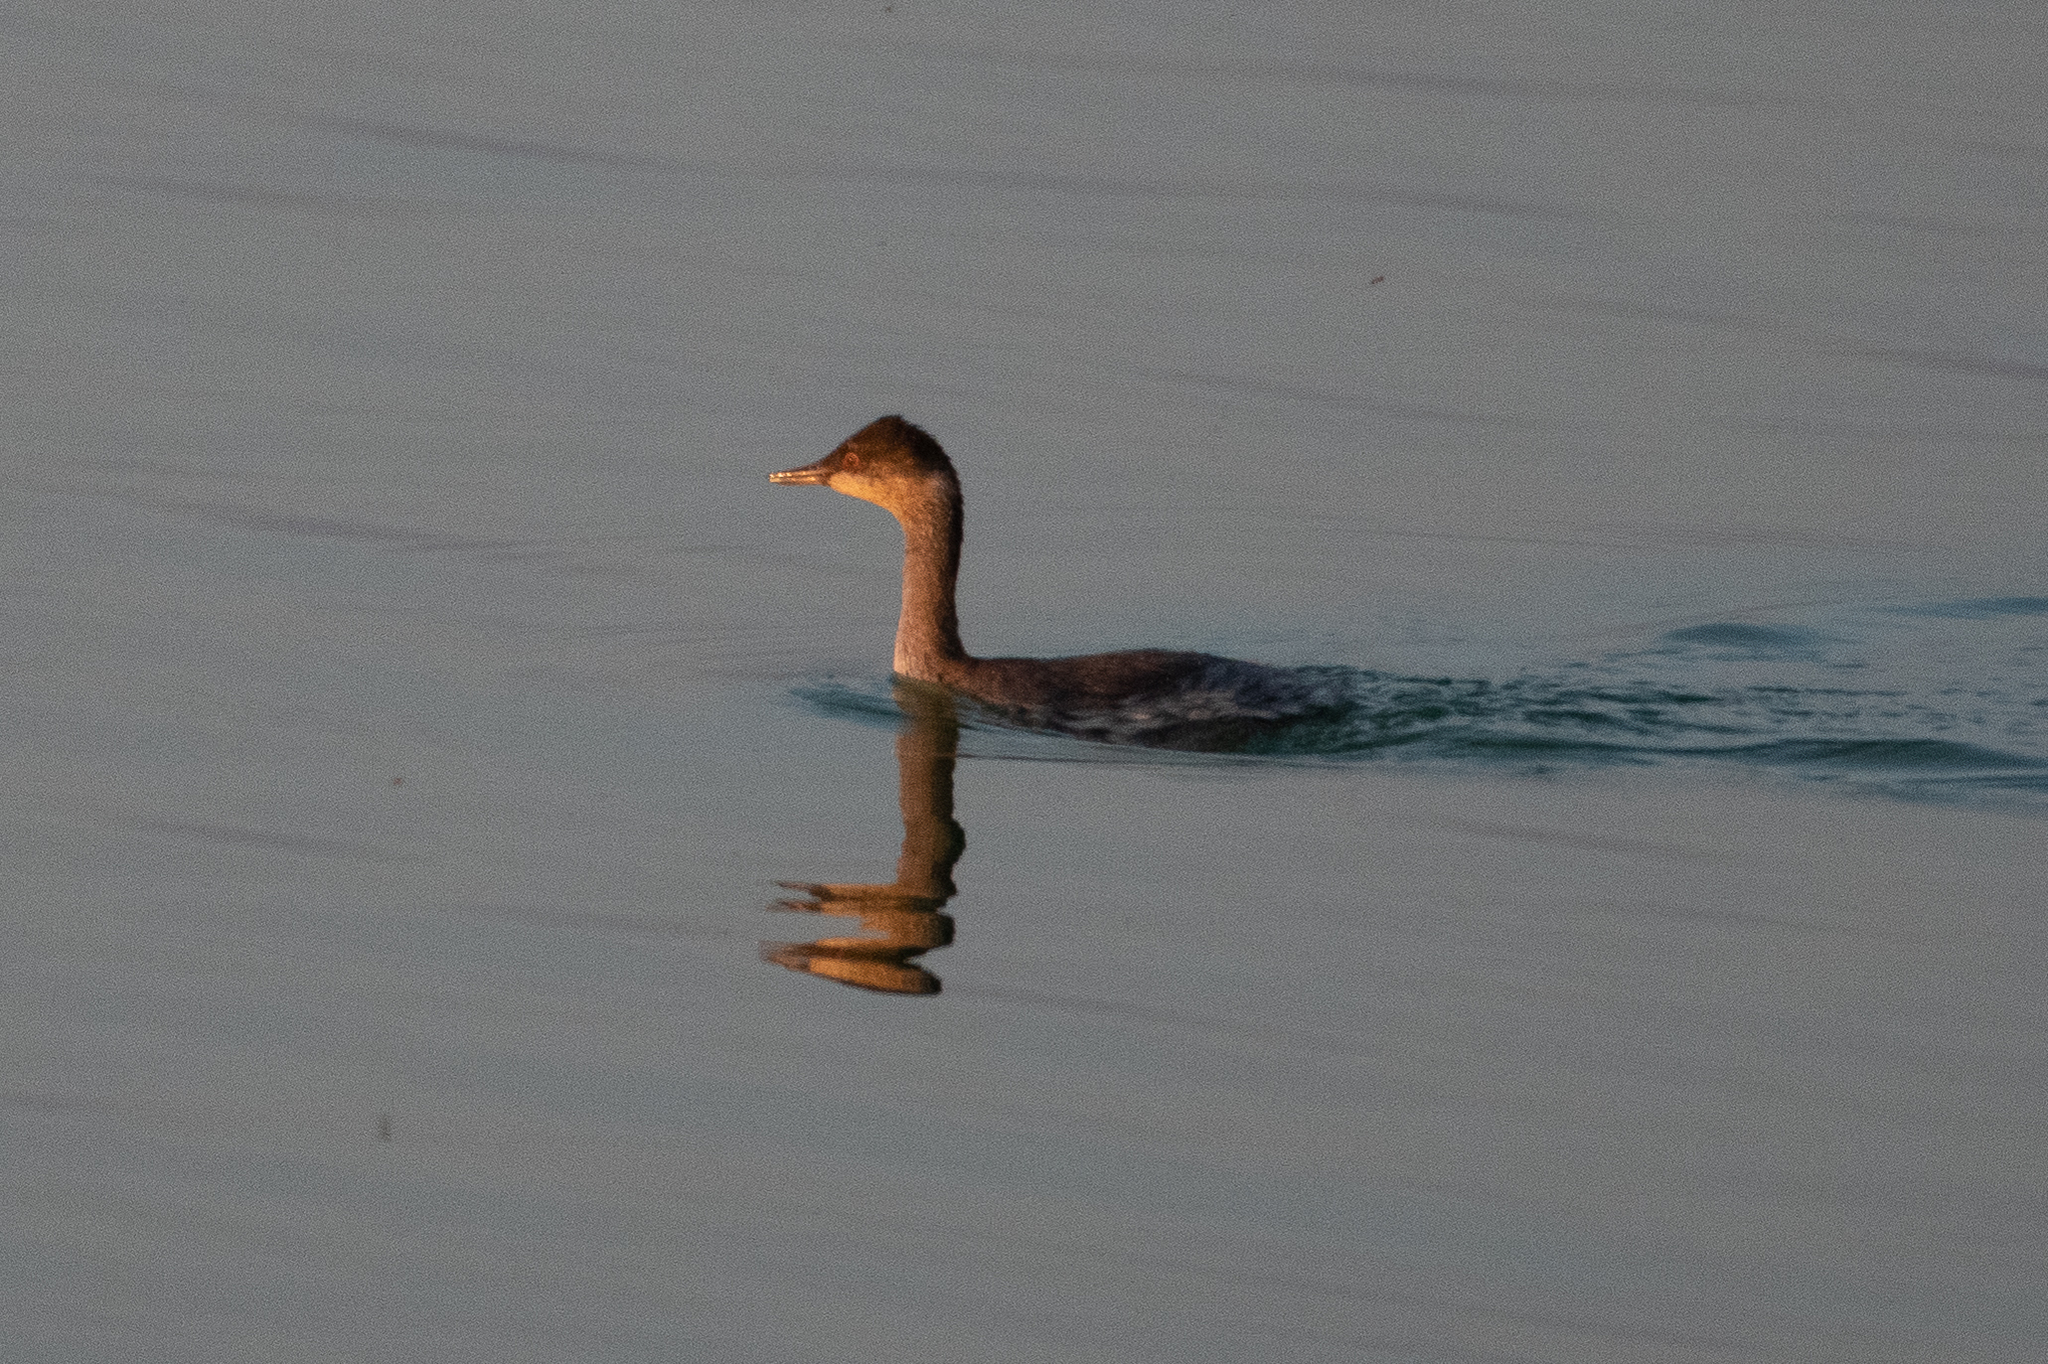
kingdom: Animalia
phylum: Chordata
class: Aves
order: Podicipediformes
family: Podicipedidae
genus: Podiceps
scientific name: Podiceps nigricollis
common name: Black-necked grebe
